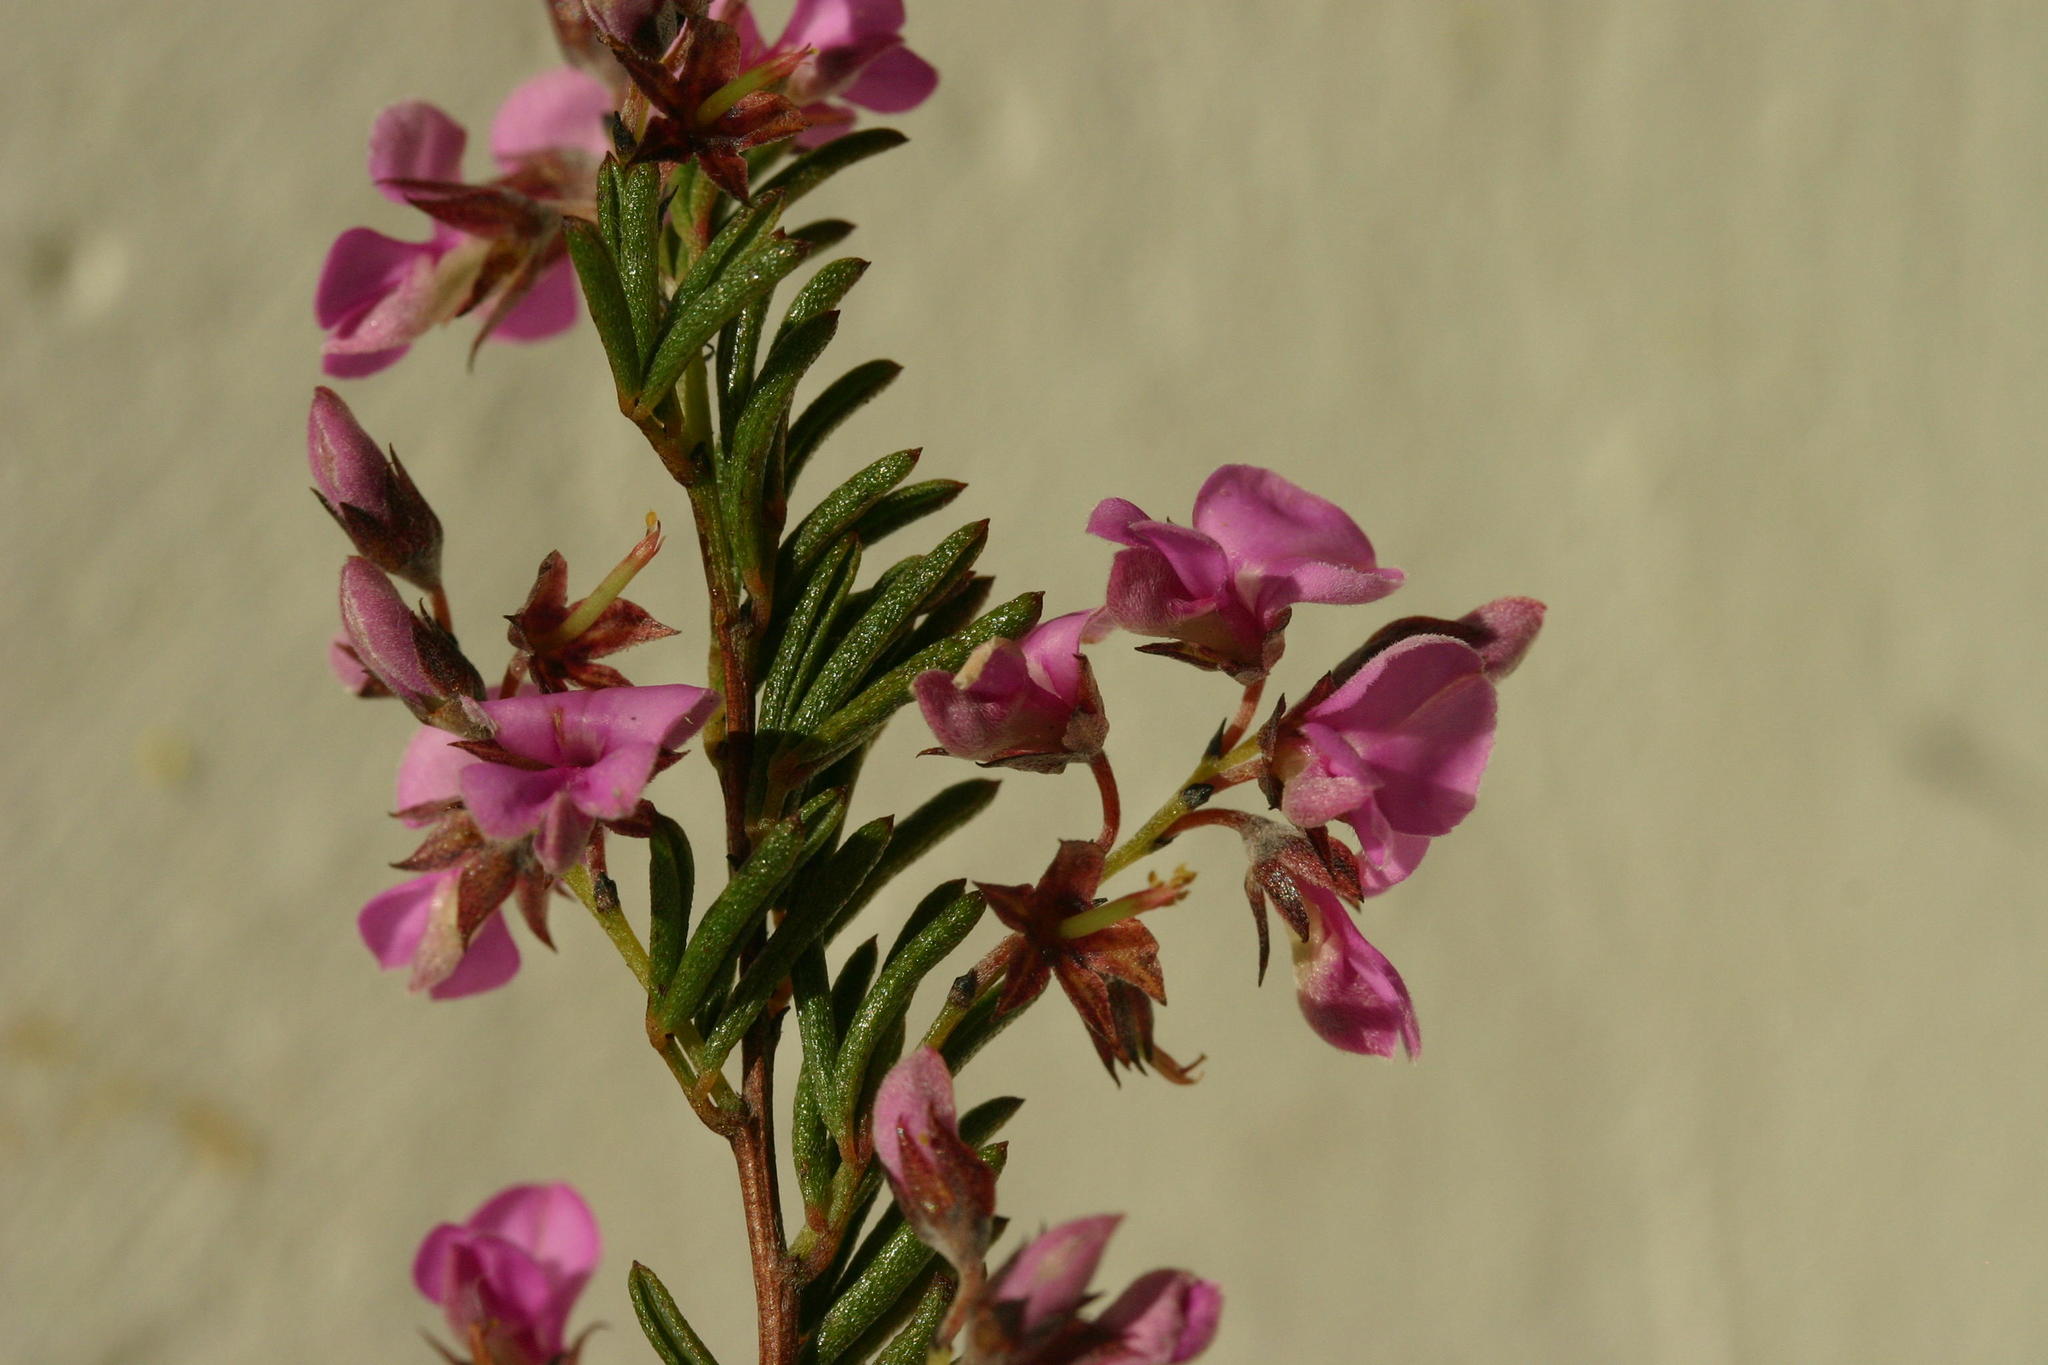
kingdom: Plantae
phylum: Tracheophyta
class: Magnoliopsida
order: Fabales
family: Fabaceae
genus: Indigofera
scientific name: Indigofera concava
